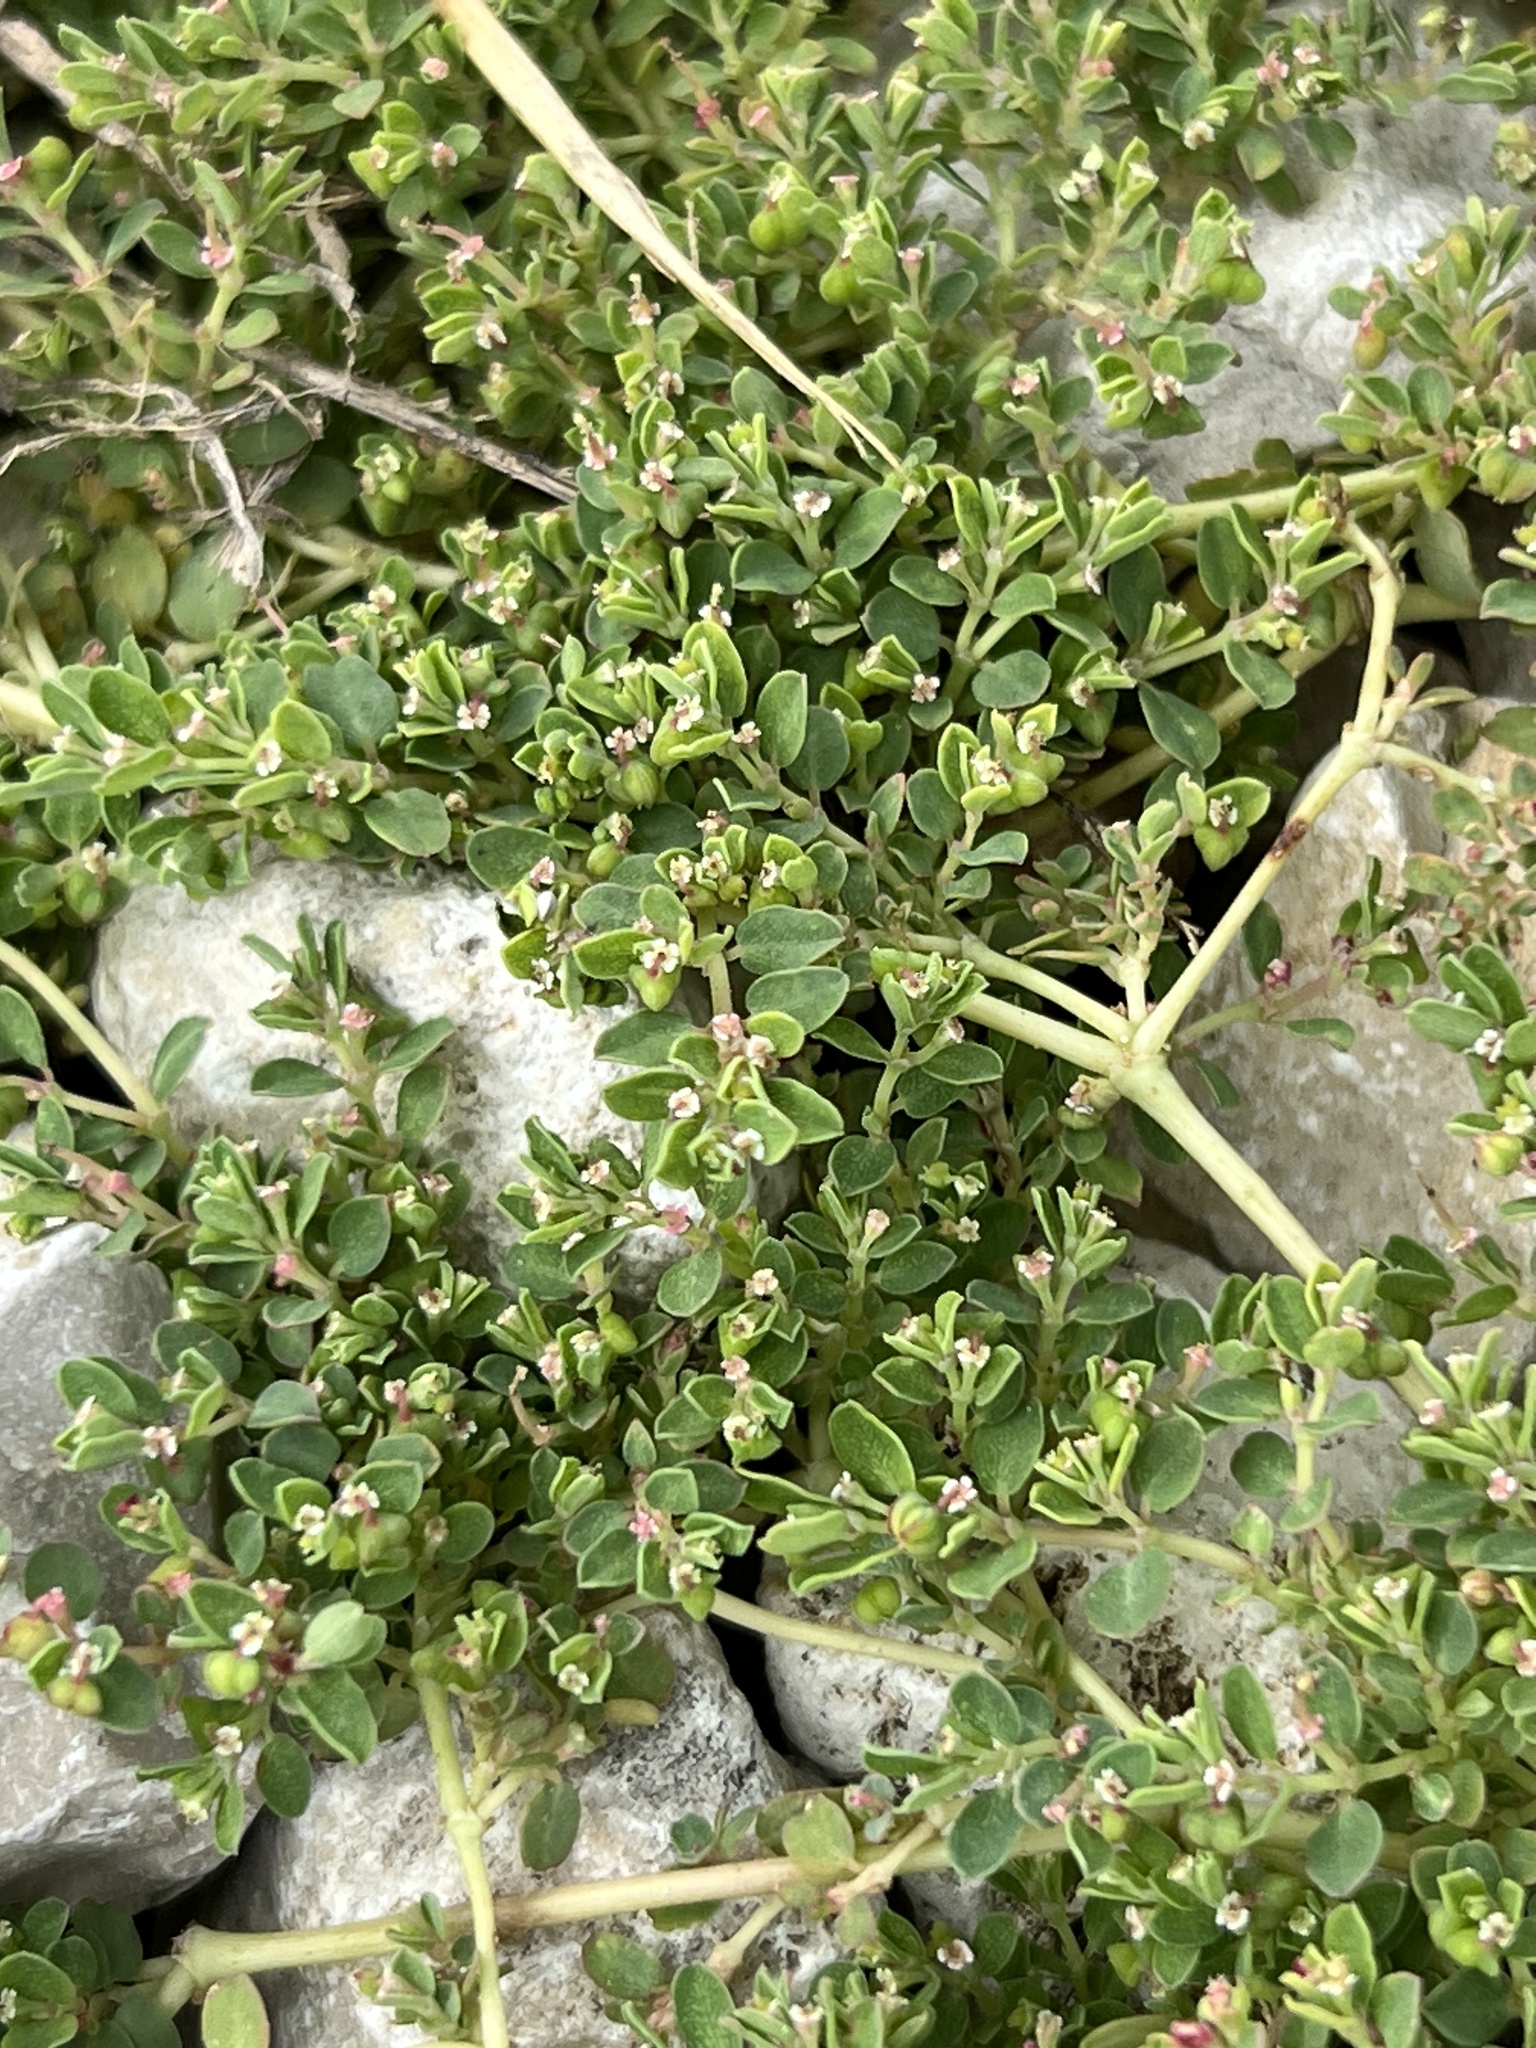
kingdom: Plantae
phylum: Tracheophyta
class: Magnoliopsida
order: Malpighiales
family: Euphorbiaceae
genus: Euphorbia
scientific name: Euphorbia serpens
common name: Matted sandmat
